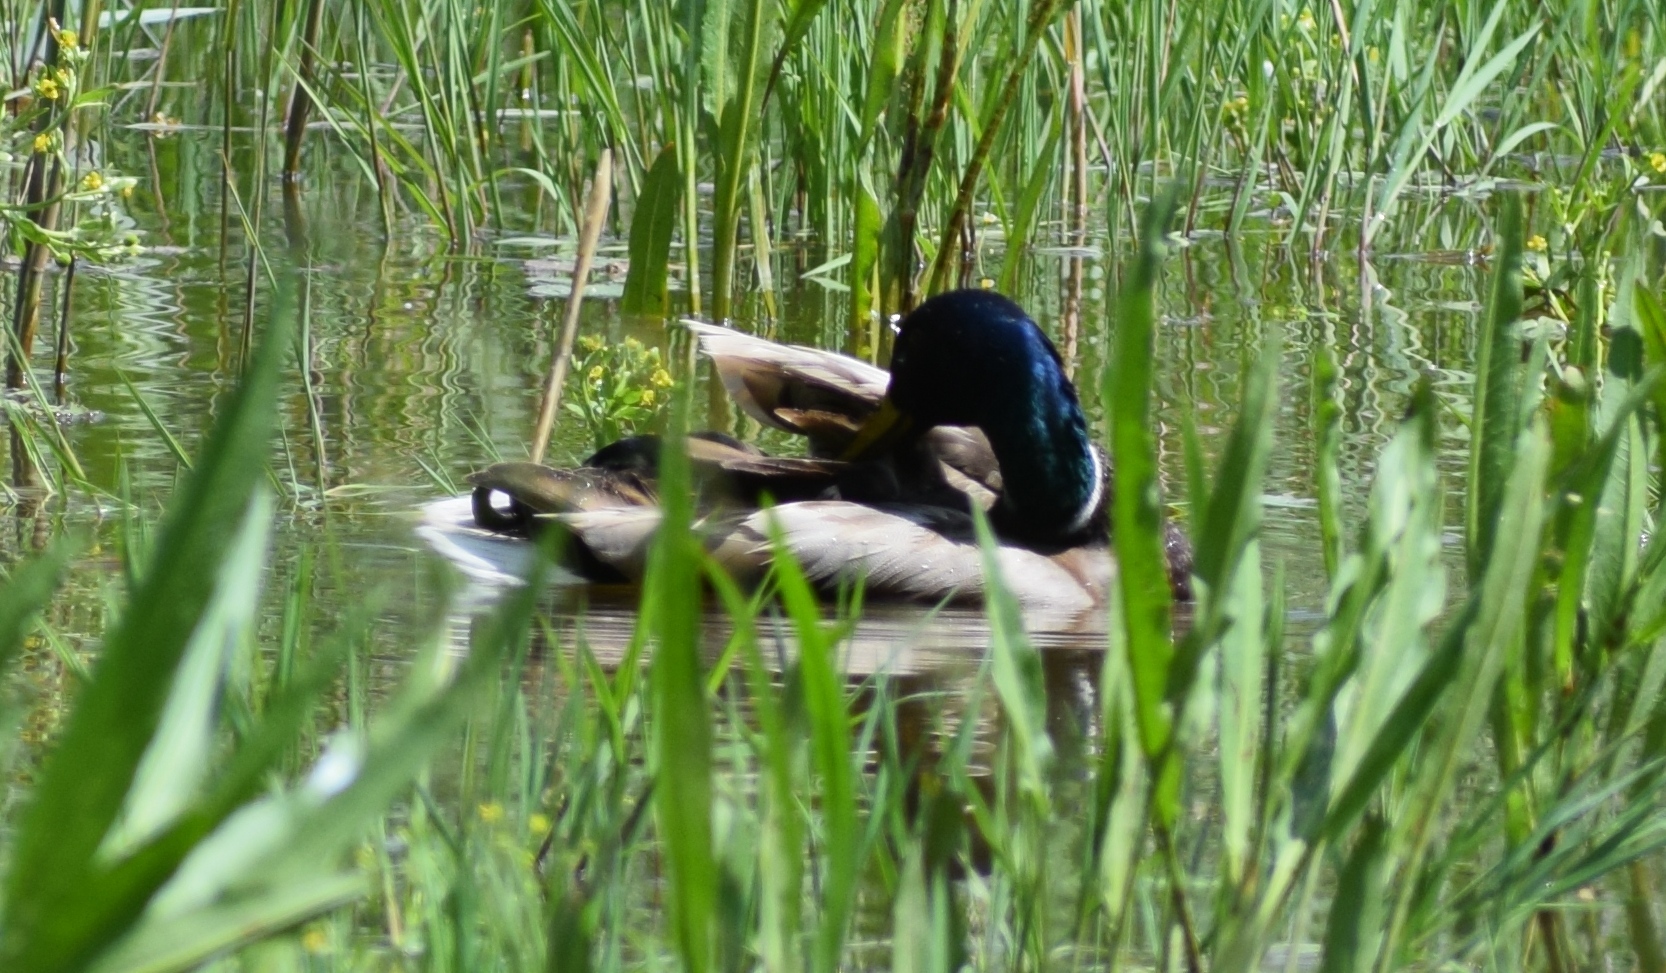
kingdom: Animalia
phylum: Chordata
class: Aves
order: Anseriformes
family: Anatidae
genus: Anas
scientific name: Anas platyrhynchos
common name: Mallard
